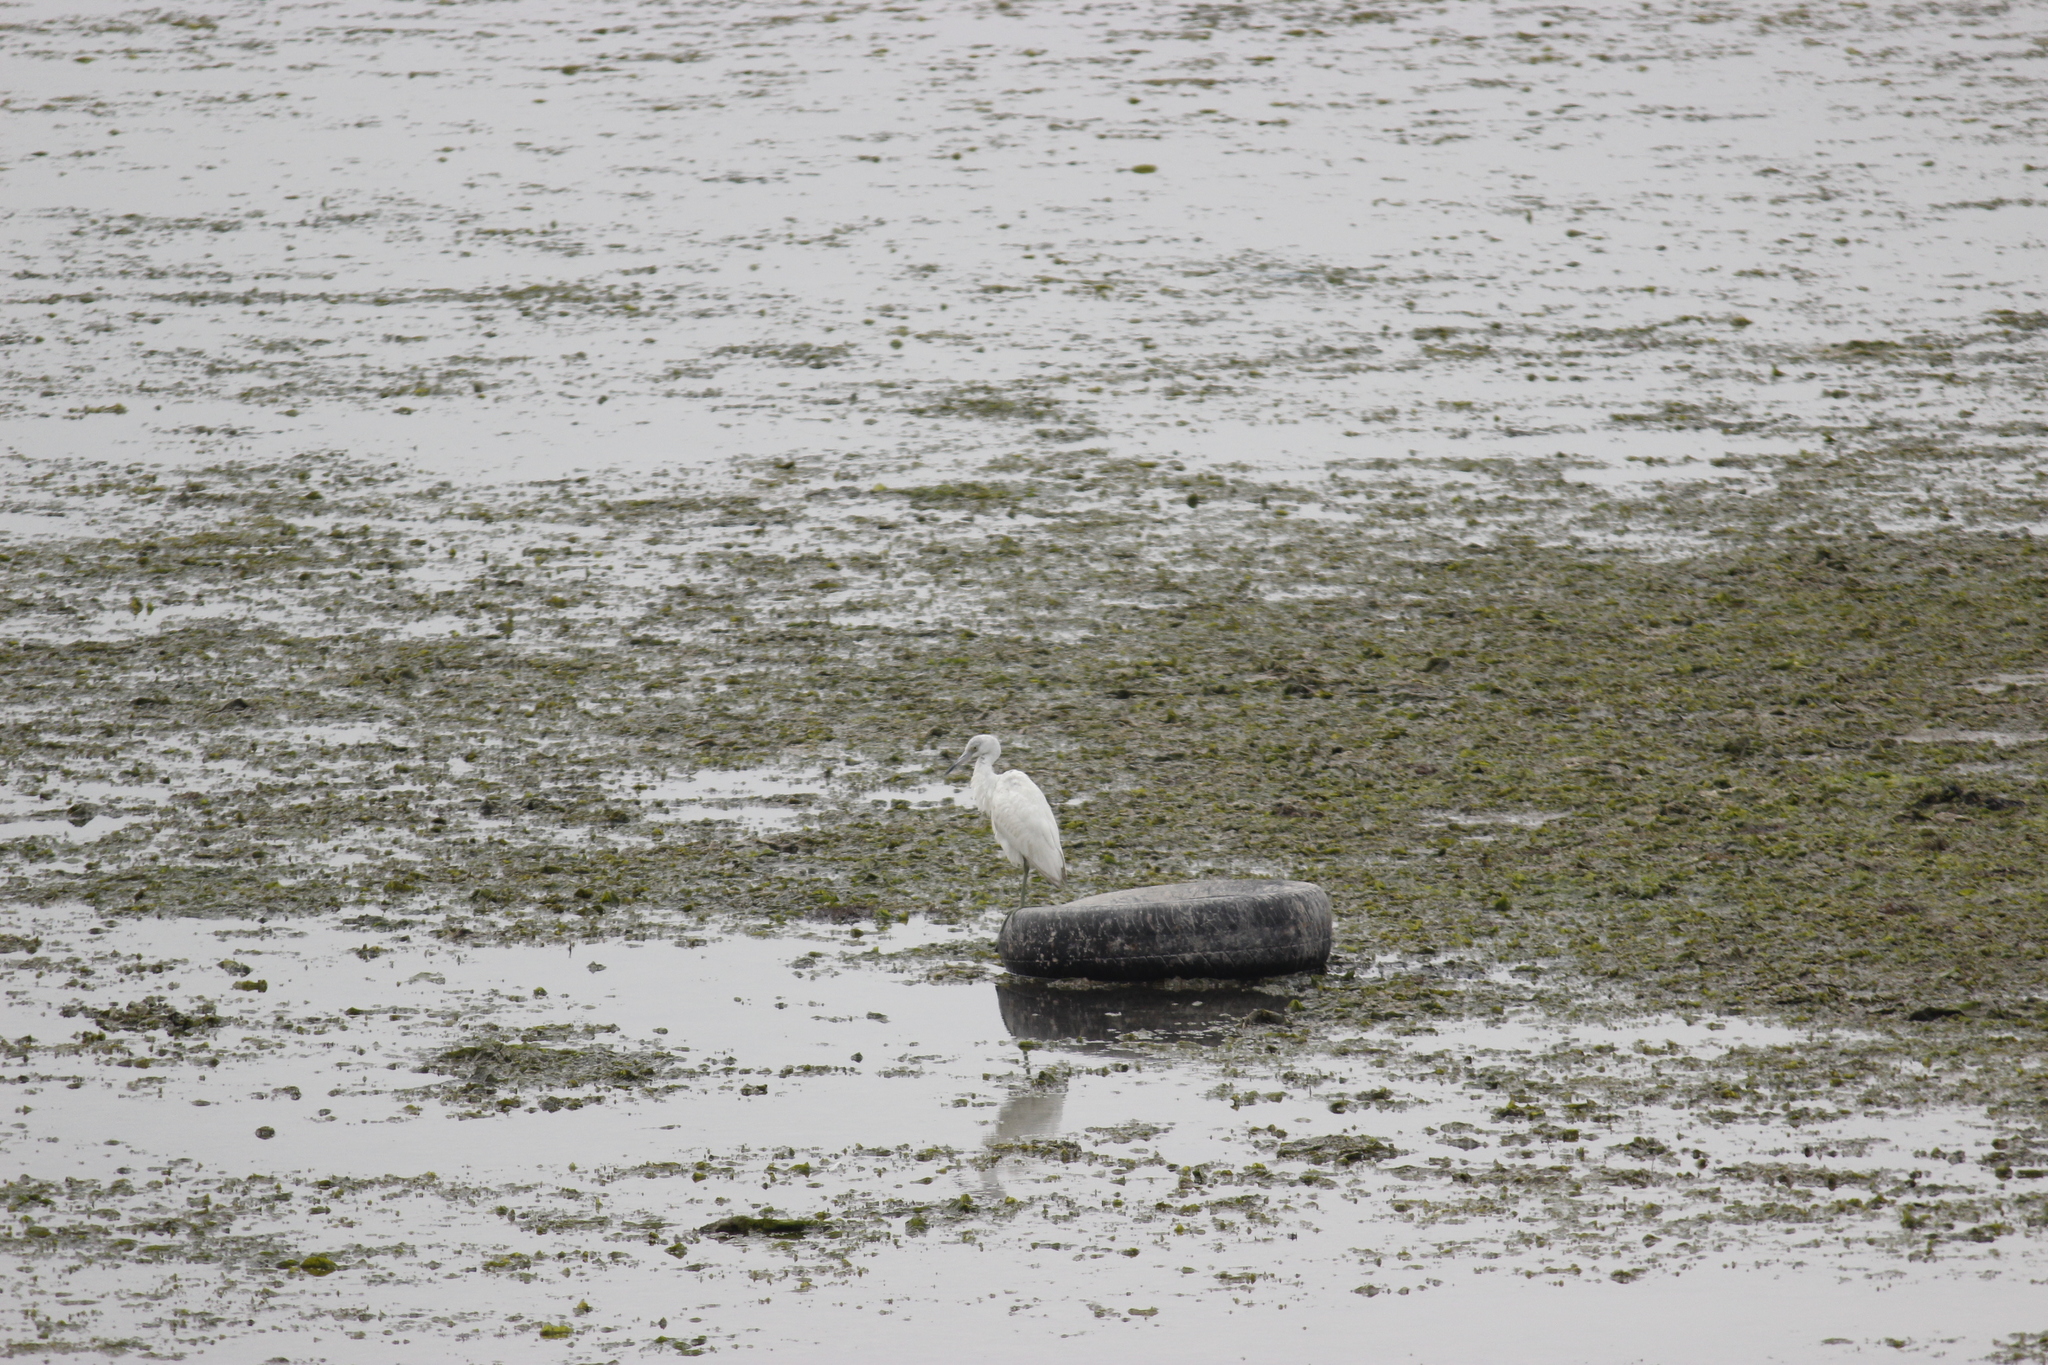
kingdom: Animalia
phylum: Chordata
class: Aves
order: Pelecaniformes
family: Ardeidae
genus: Egretta
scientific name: Egretta caerulea
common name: Little blue heron
